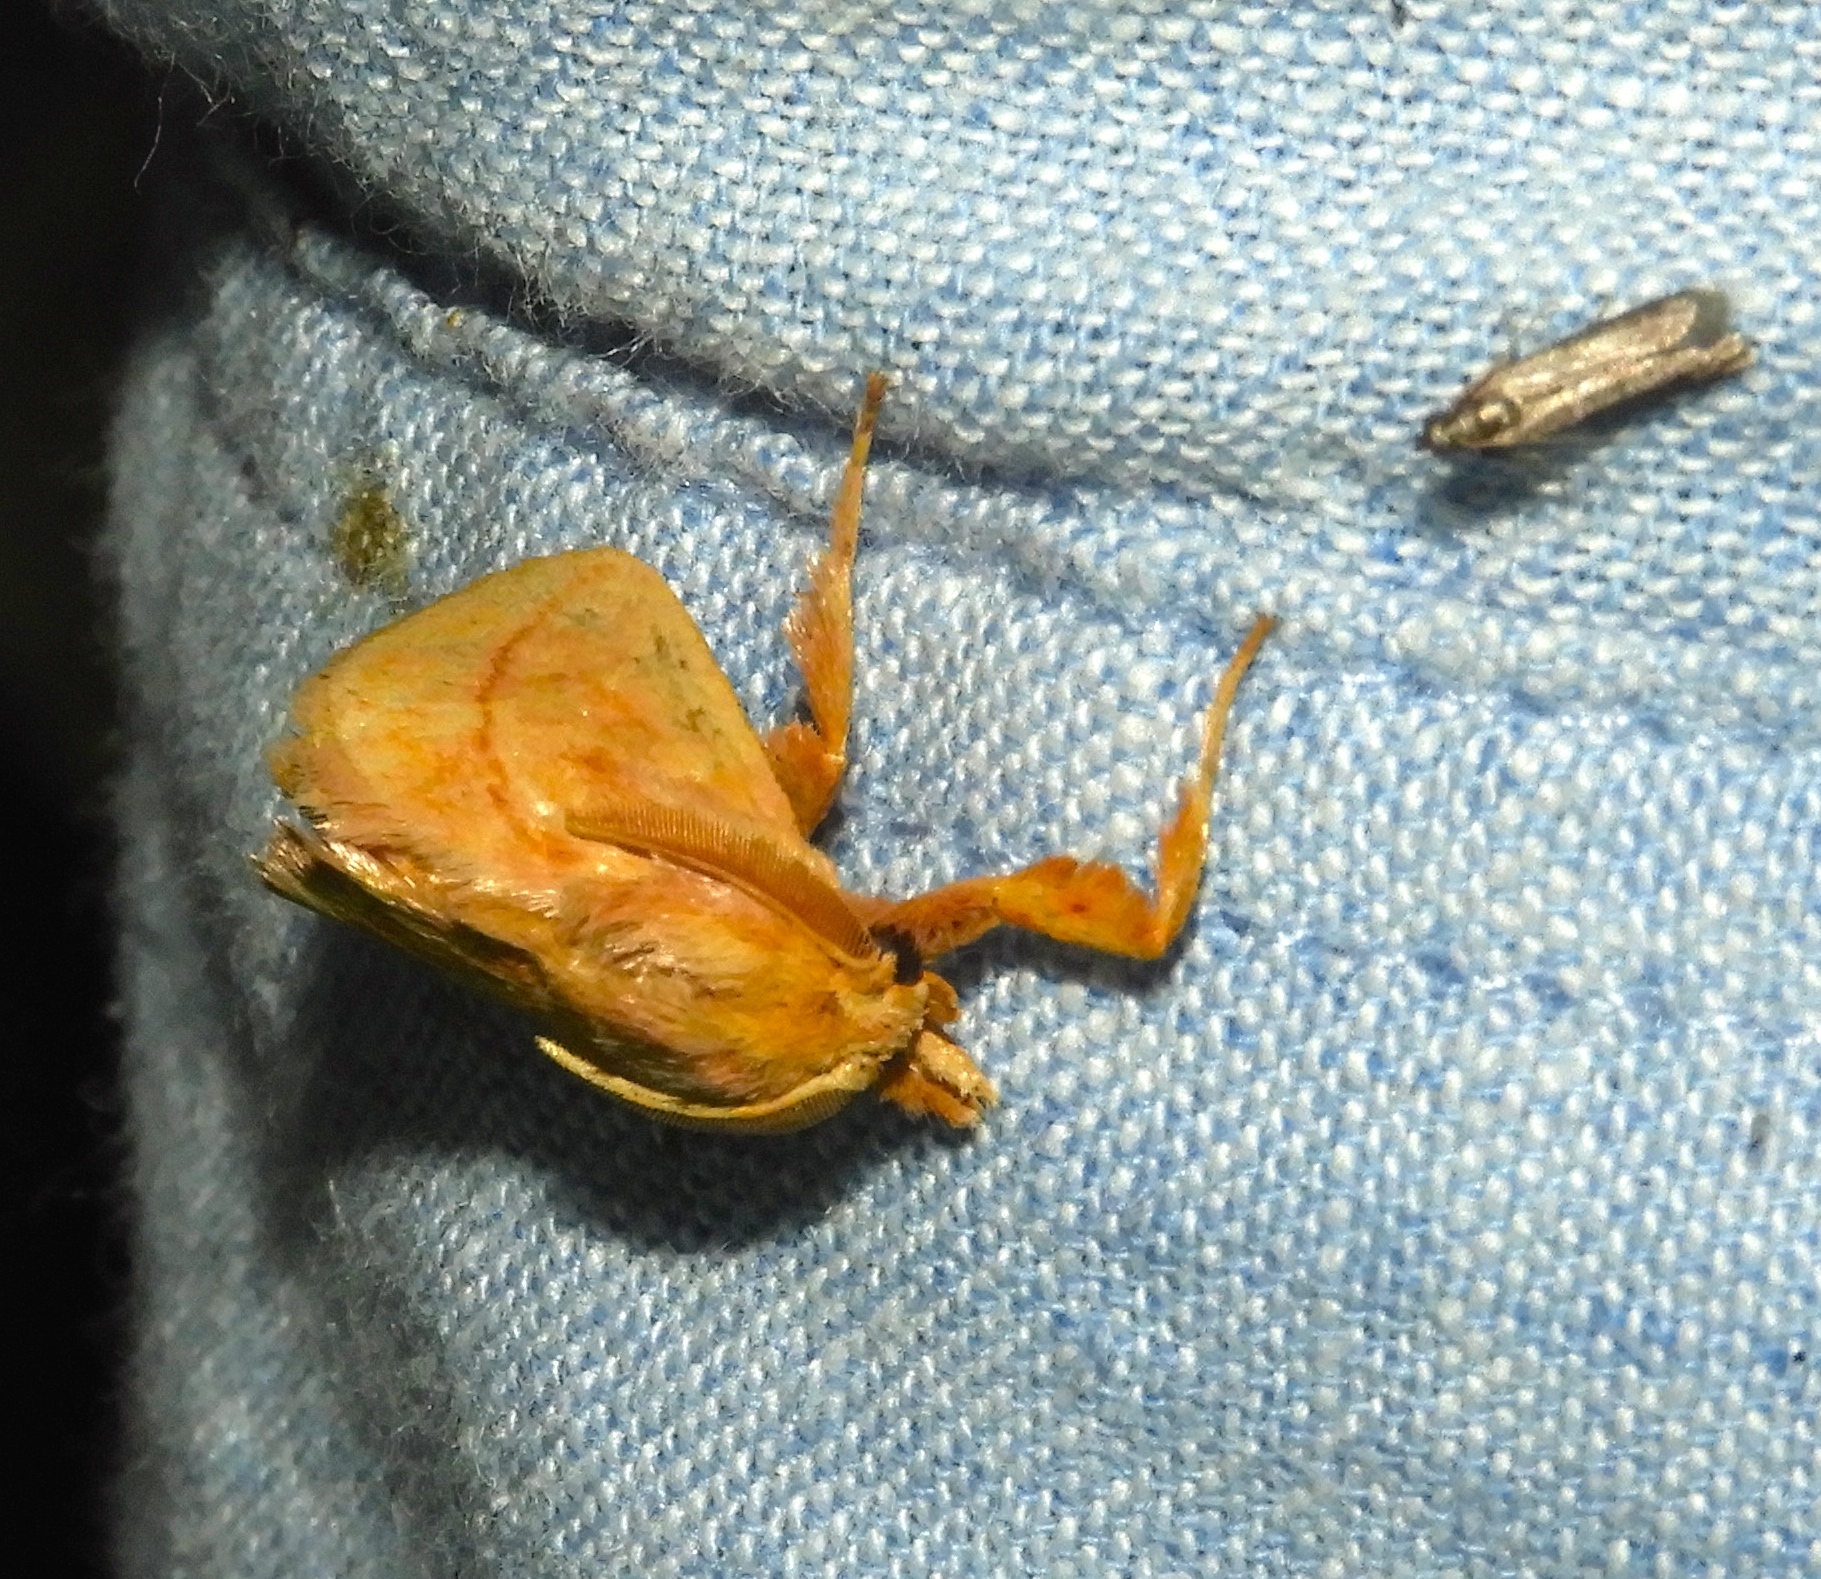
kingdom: Animalia
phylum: Arthropoda
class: Insecta
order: Lepidoptera
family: Limacodidae
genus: Perola
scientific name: Perola clara
